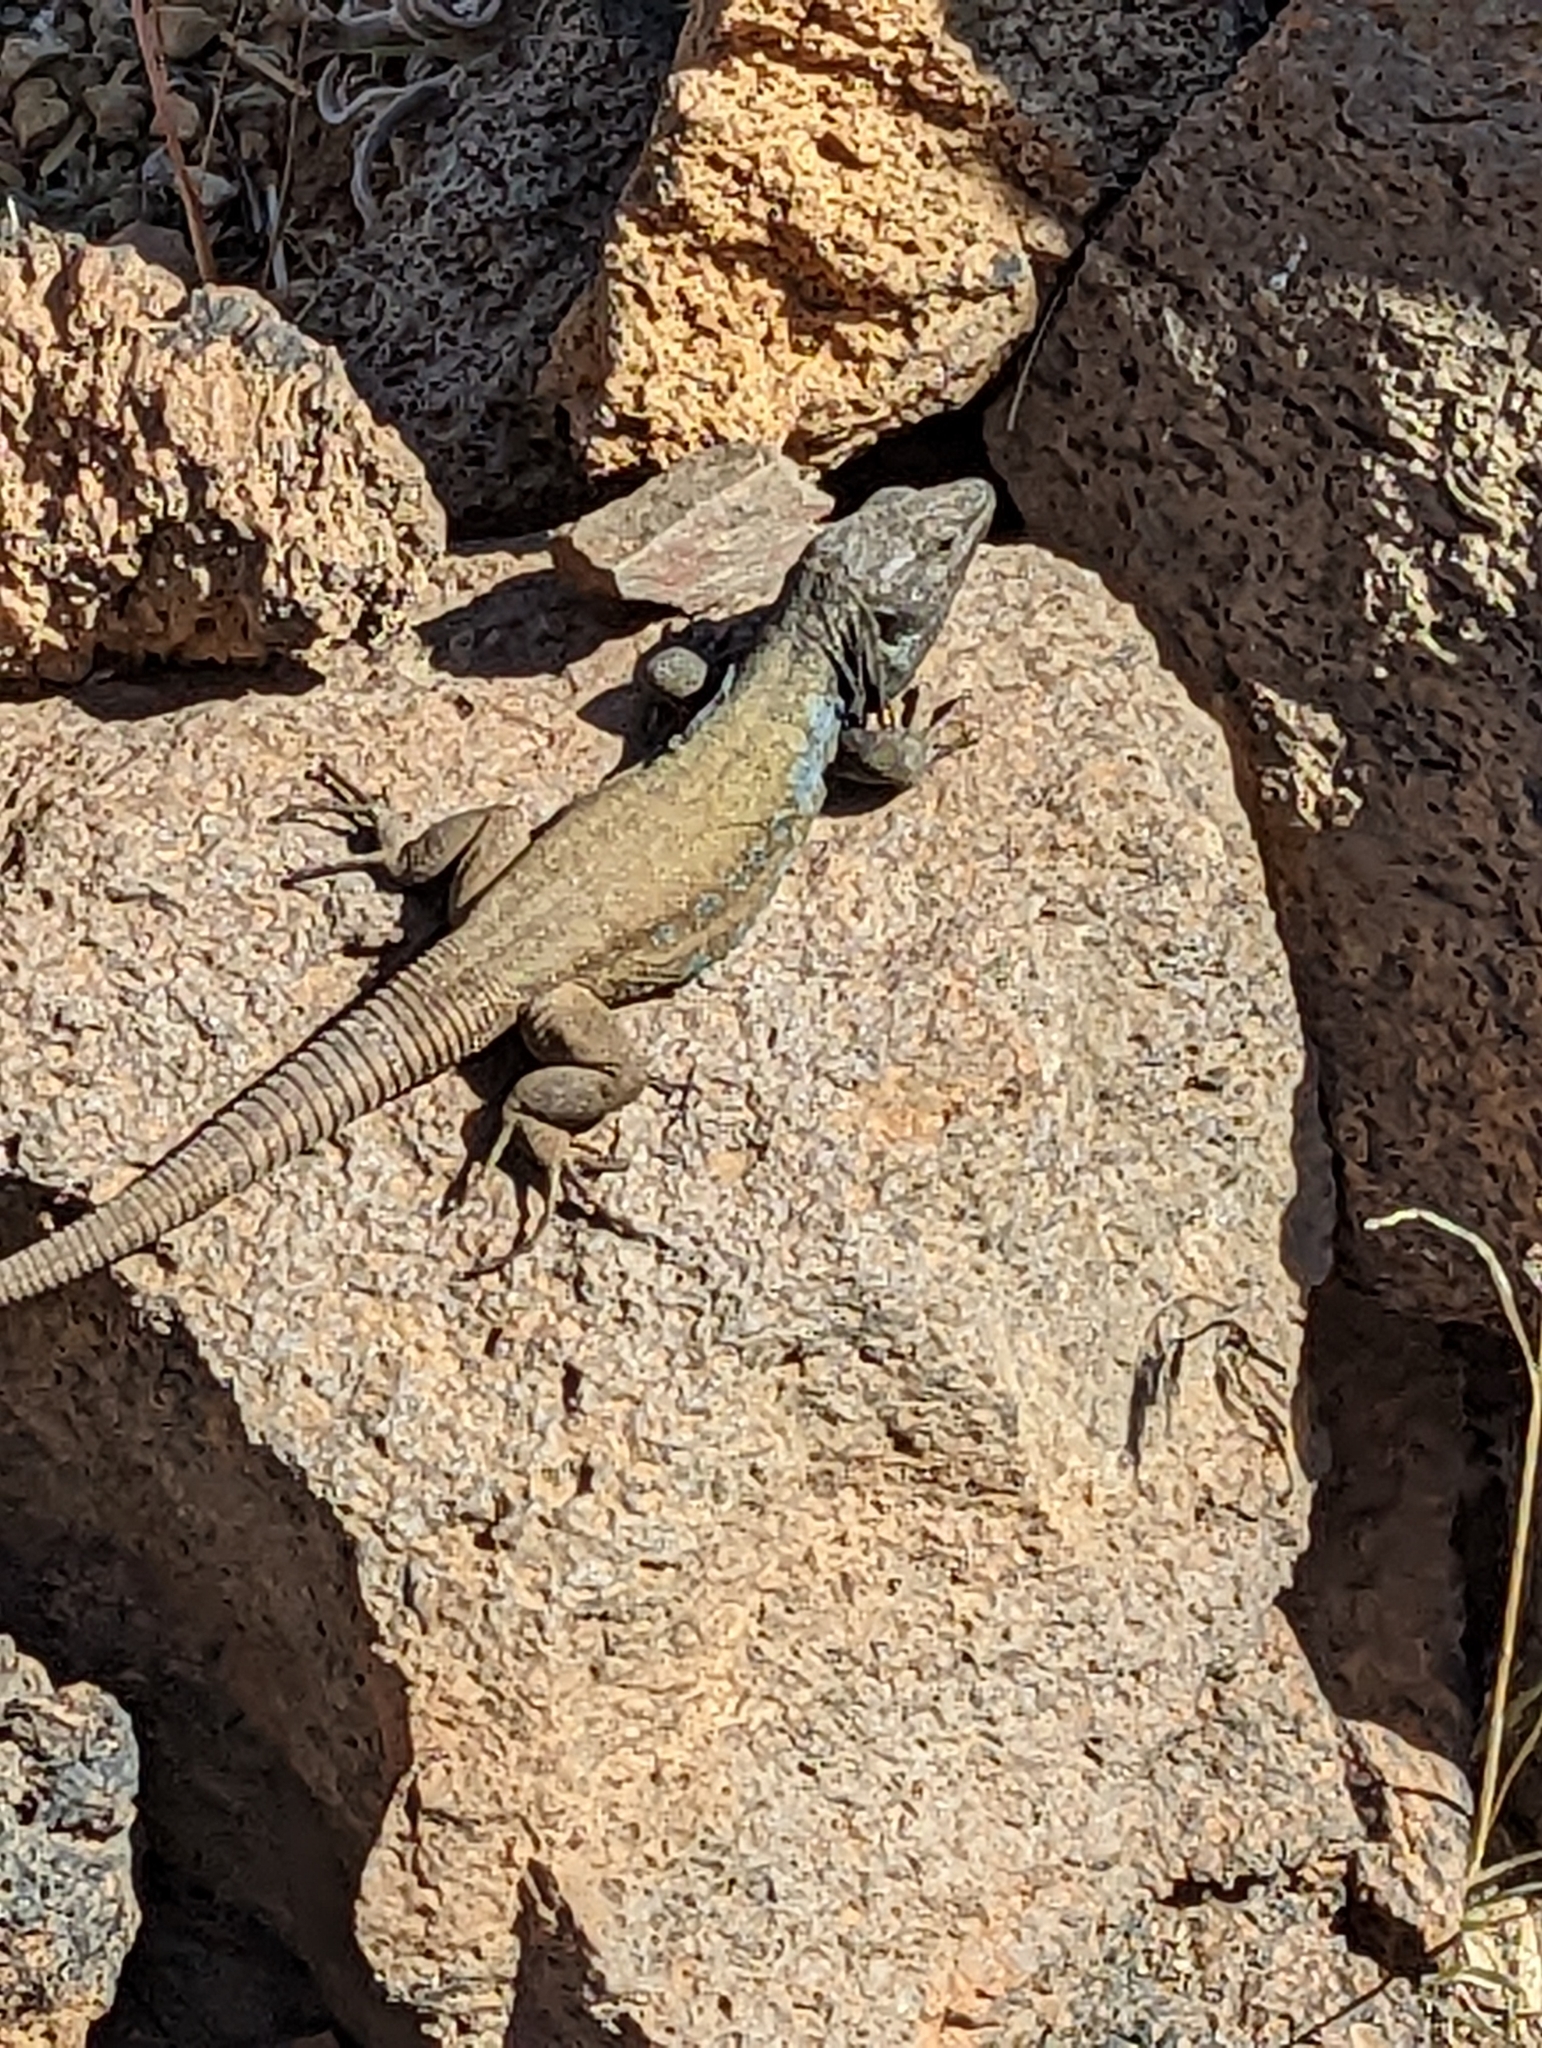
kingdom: Animalia
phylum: Chordata
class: Squamata
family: Lacertidae
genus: Gallotia
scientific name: Gallotia galloti
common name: Gallot's lizard
